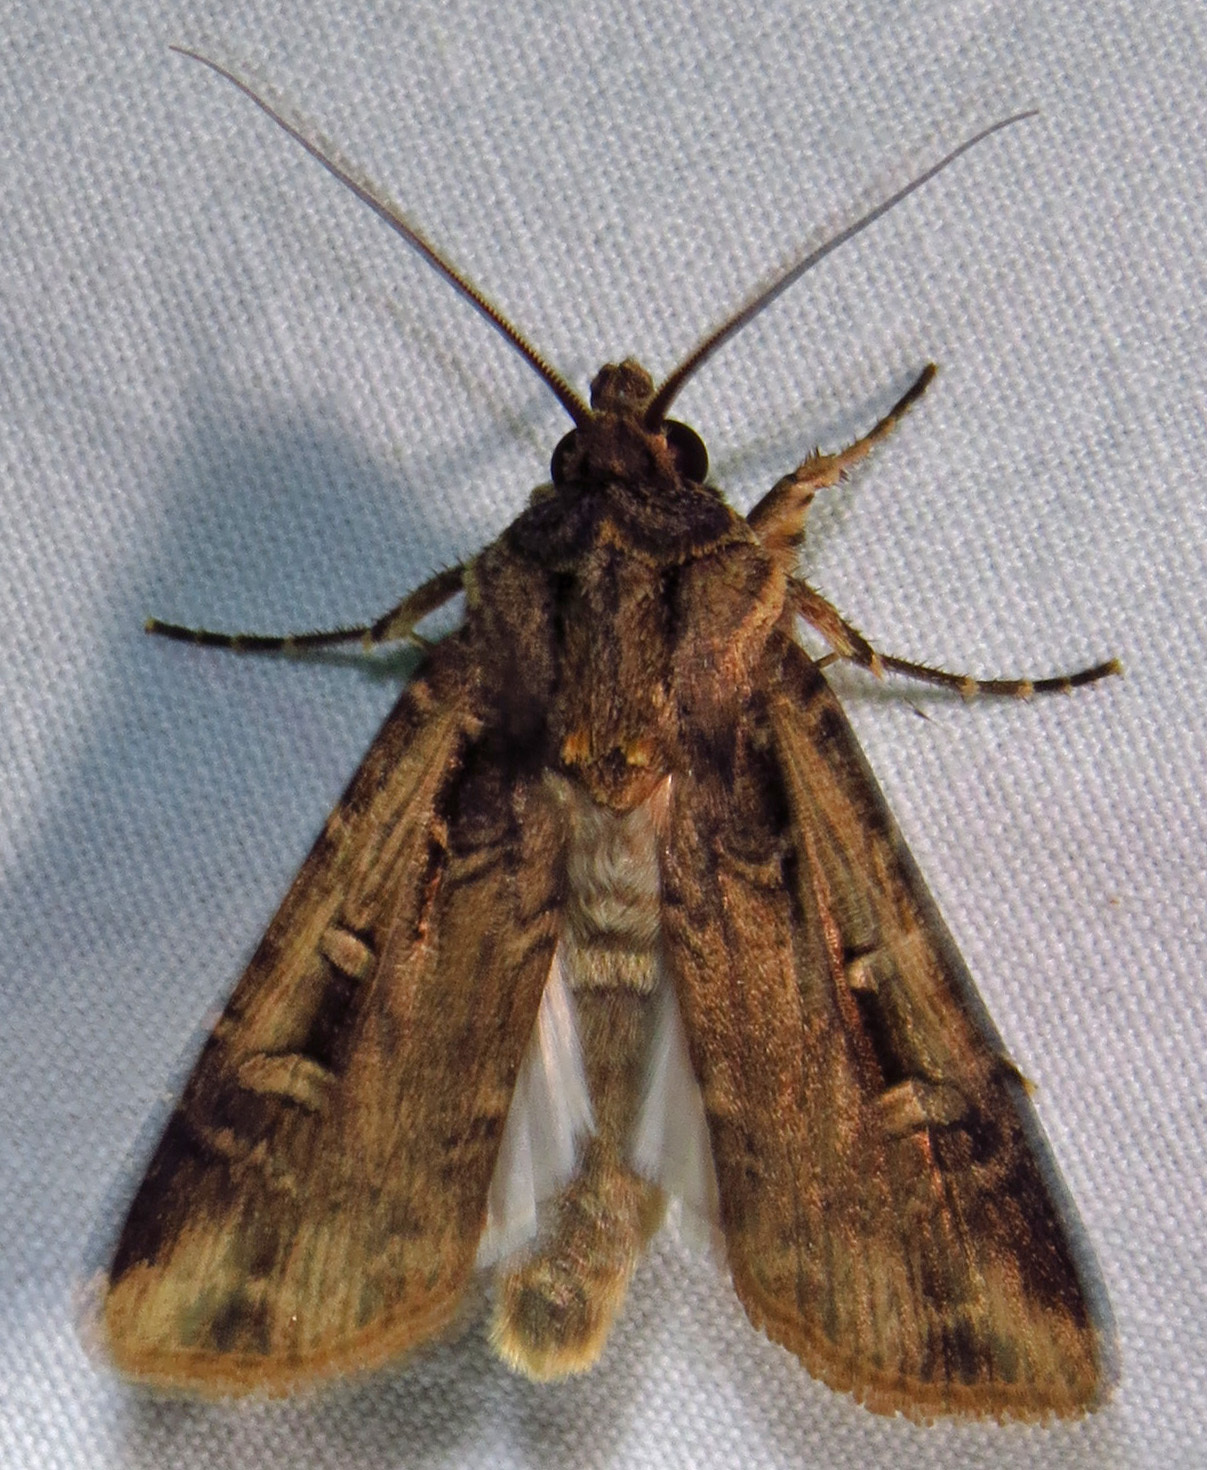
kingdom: Animalia
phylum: Arthropoda
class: Insecta
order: Lepidoptera
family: Noctuidae
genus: Feltia
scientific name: Feltia subterranea
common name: Granulate cutworm
